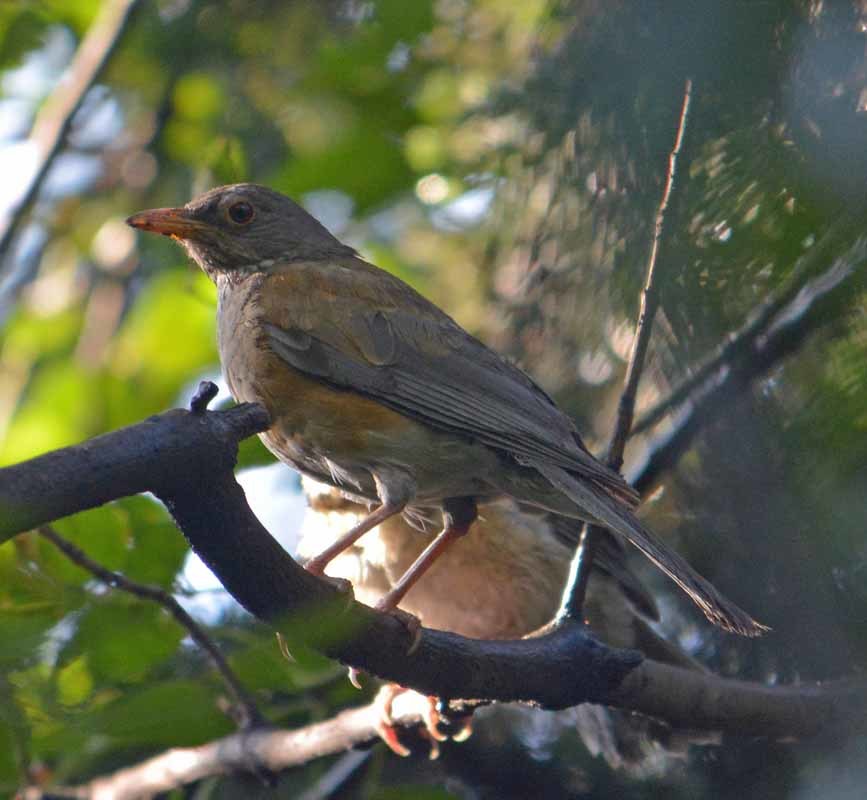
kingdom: Animalia
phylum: Chordata
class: Aves
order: Passeriformes
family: Turdidae
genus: Turdus
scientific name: Turdus rufopalliatus
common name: Rufous-backed robin
